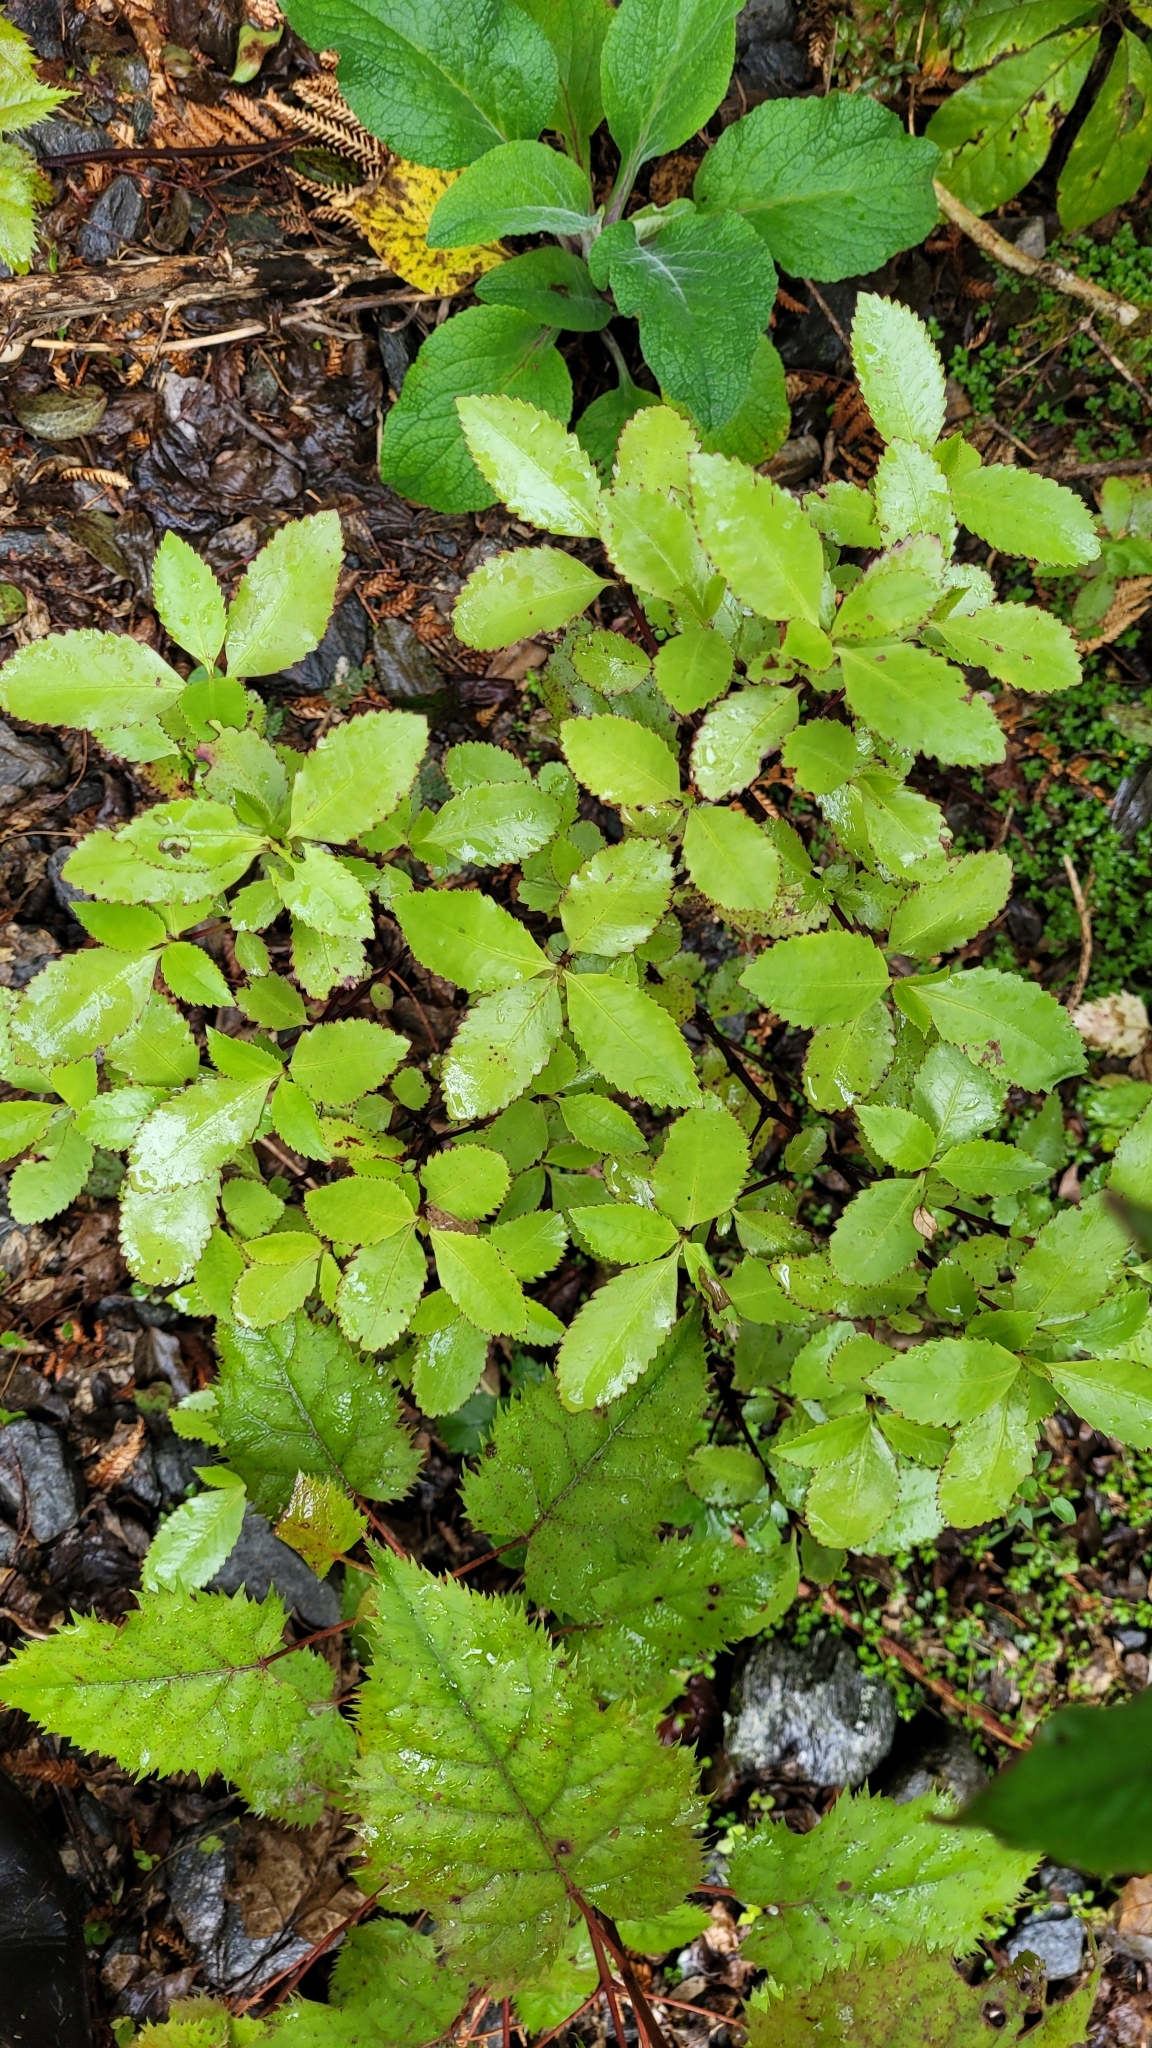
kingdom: Plantae
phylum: Tracheophyta
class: Magnoliopsida
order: Chloranthales
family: Chloranthaceae
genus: Ascarina
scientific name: Ascarina lucida
